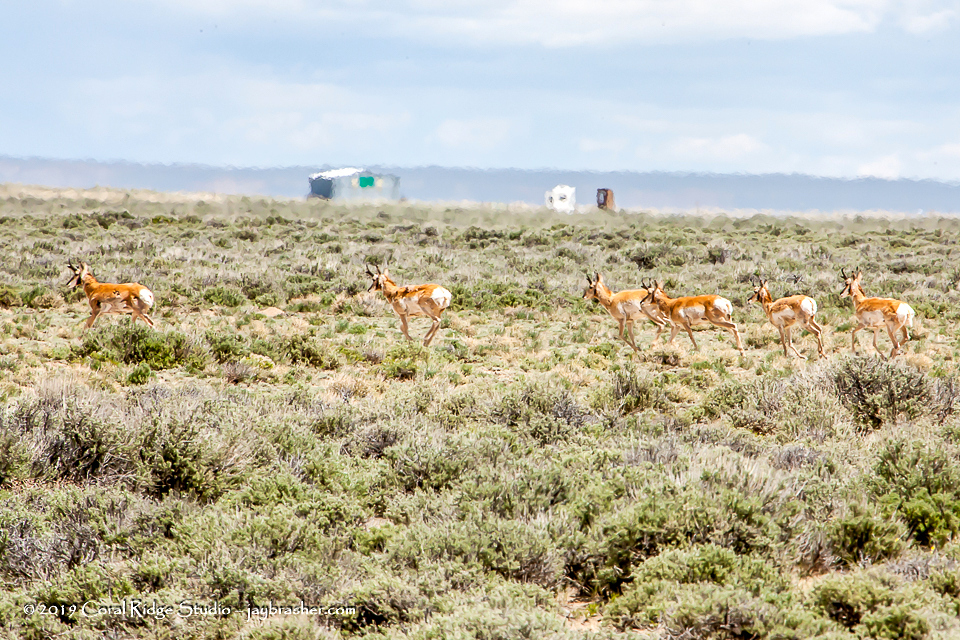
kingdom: Animalia
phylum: Chordata
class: Mammalia
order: Artiodactyla
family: Antilocapridae
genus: Antilocapra
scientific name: Antilocapra americana
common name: Pronghorn
